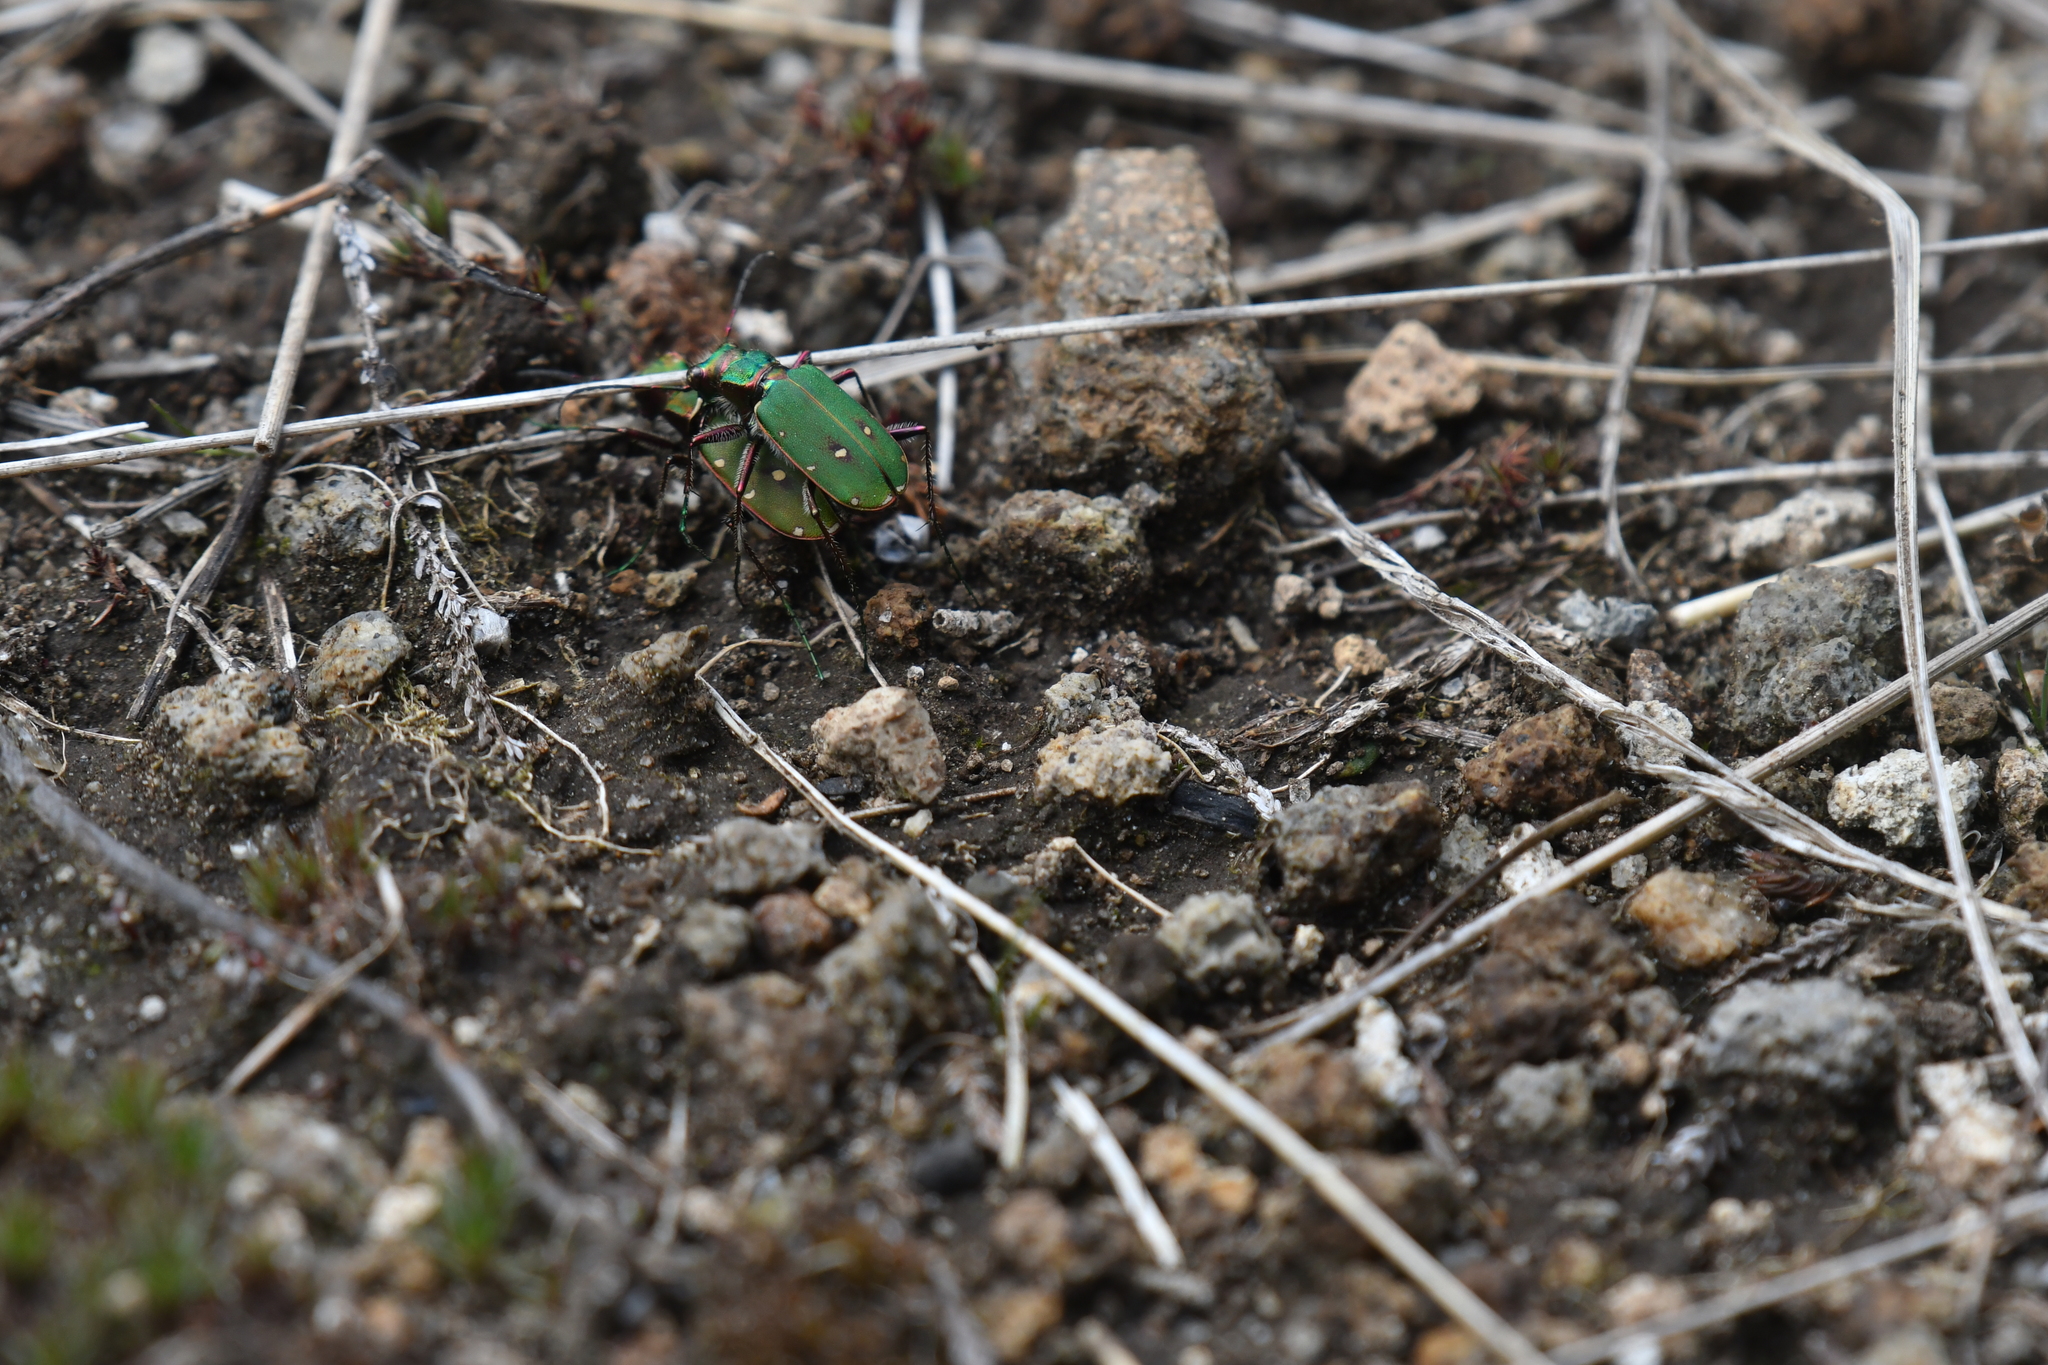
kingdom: Animalia
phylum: Arthropoda
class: Insecta
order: Coleoptera
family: Carabidae
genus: Cicindela
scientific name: Cicindela campestris
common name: Common tiger beetle
